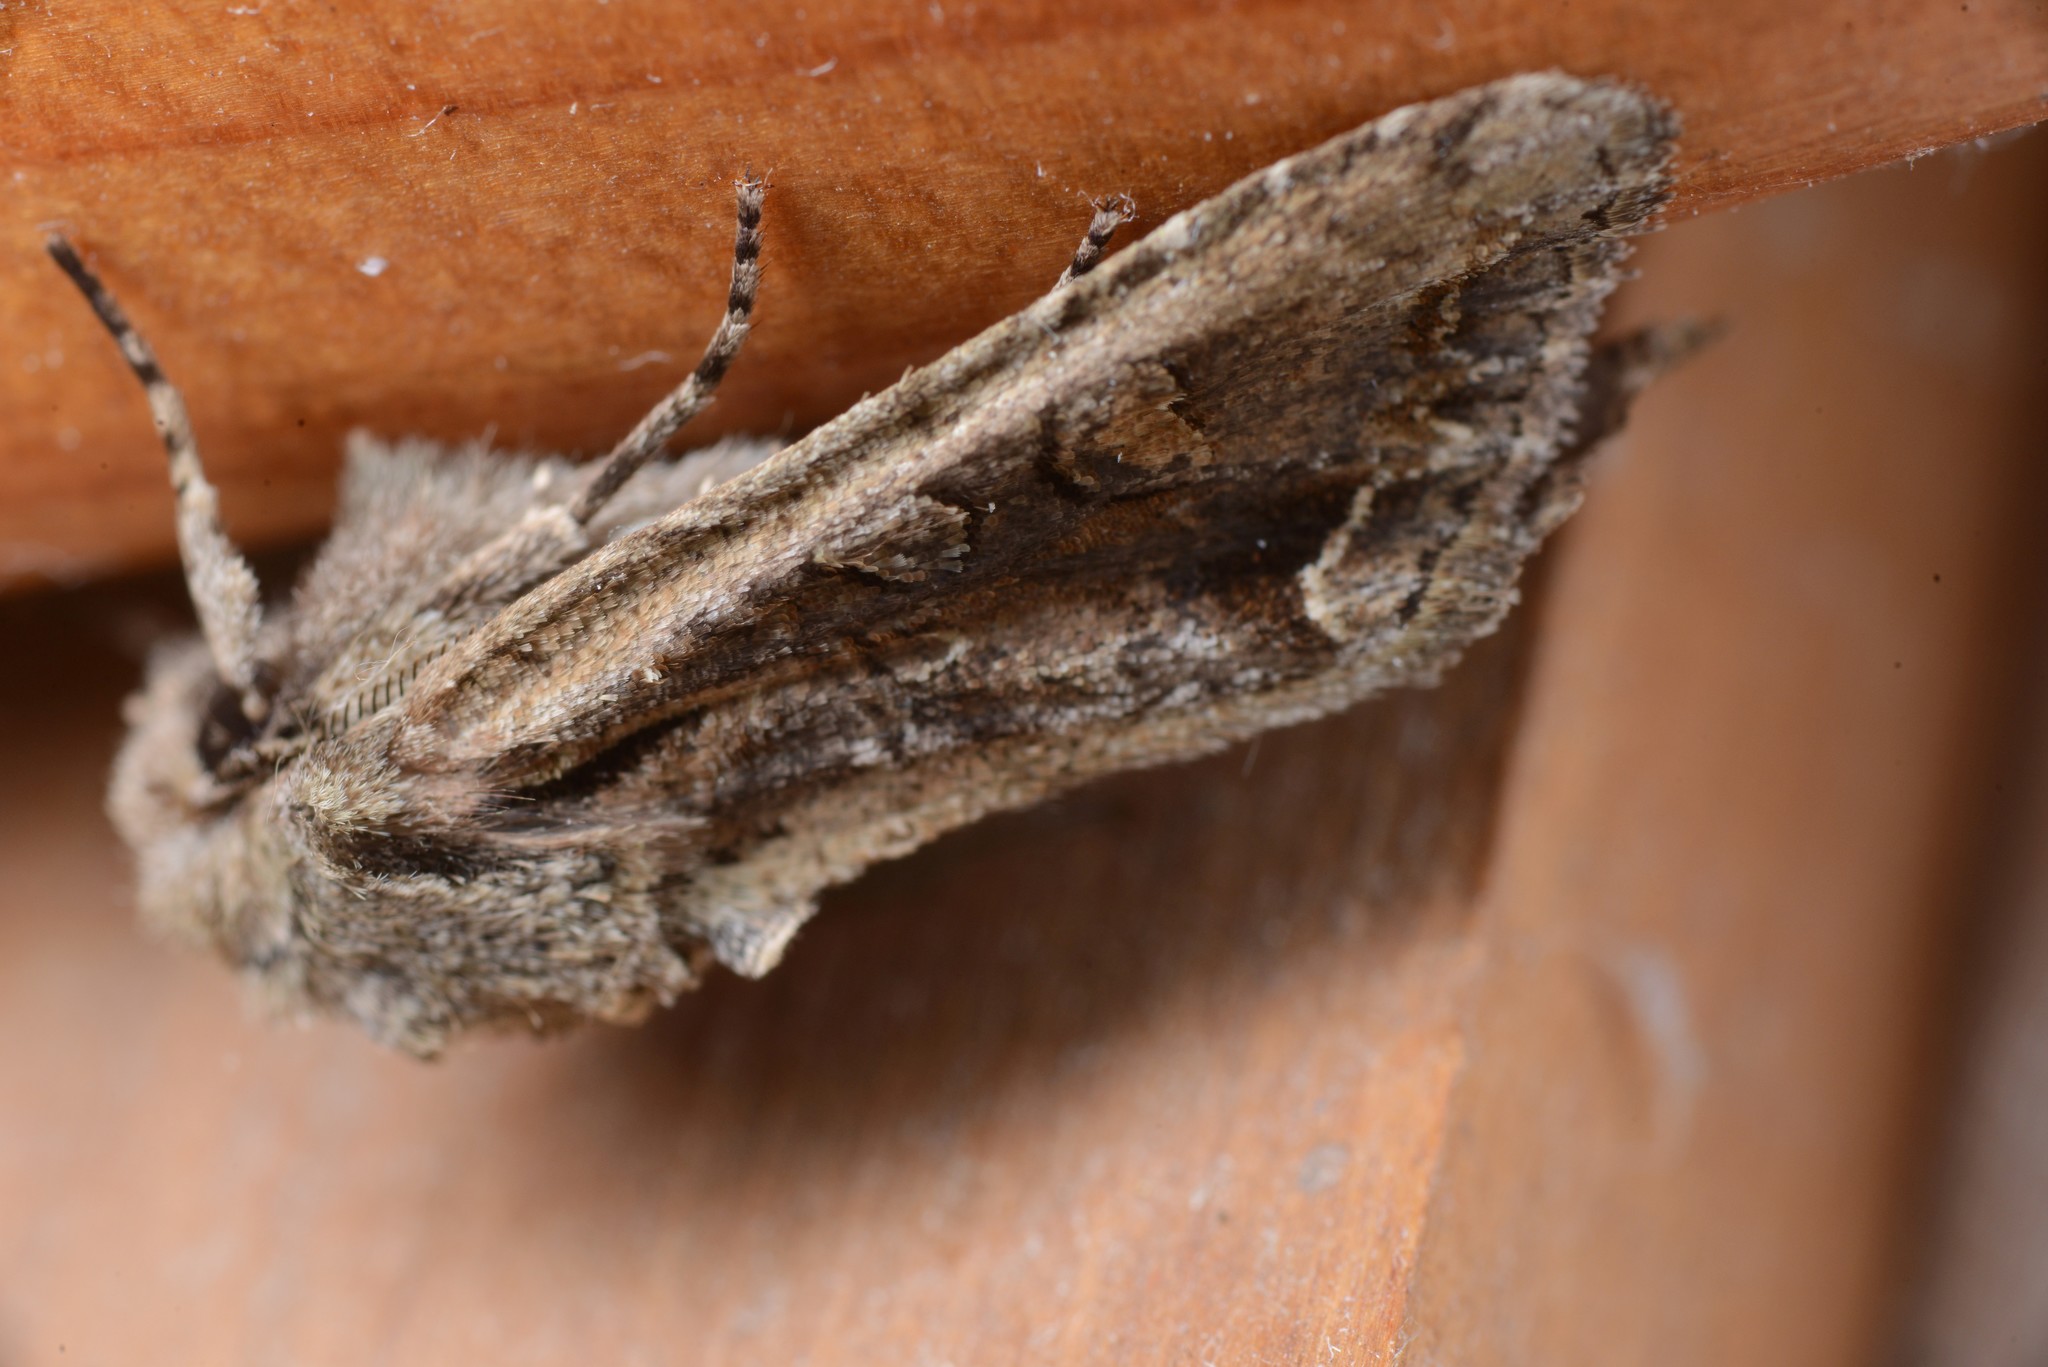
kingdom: Animalia
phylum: Arthropoda
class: Insecta
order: Lepidoptera
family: Noctuidae
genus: Ichneutica
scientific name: Ichneutica insignis
